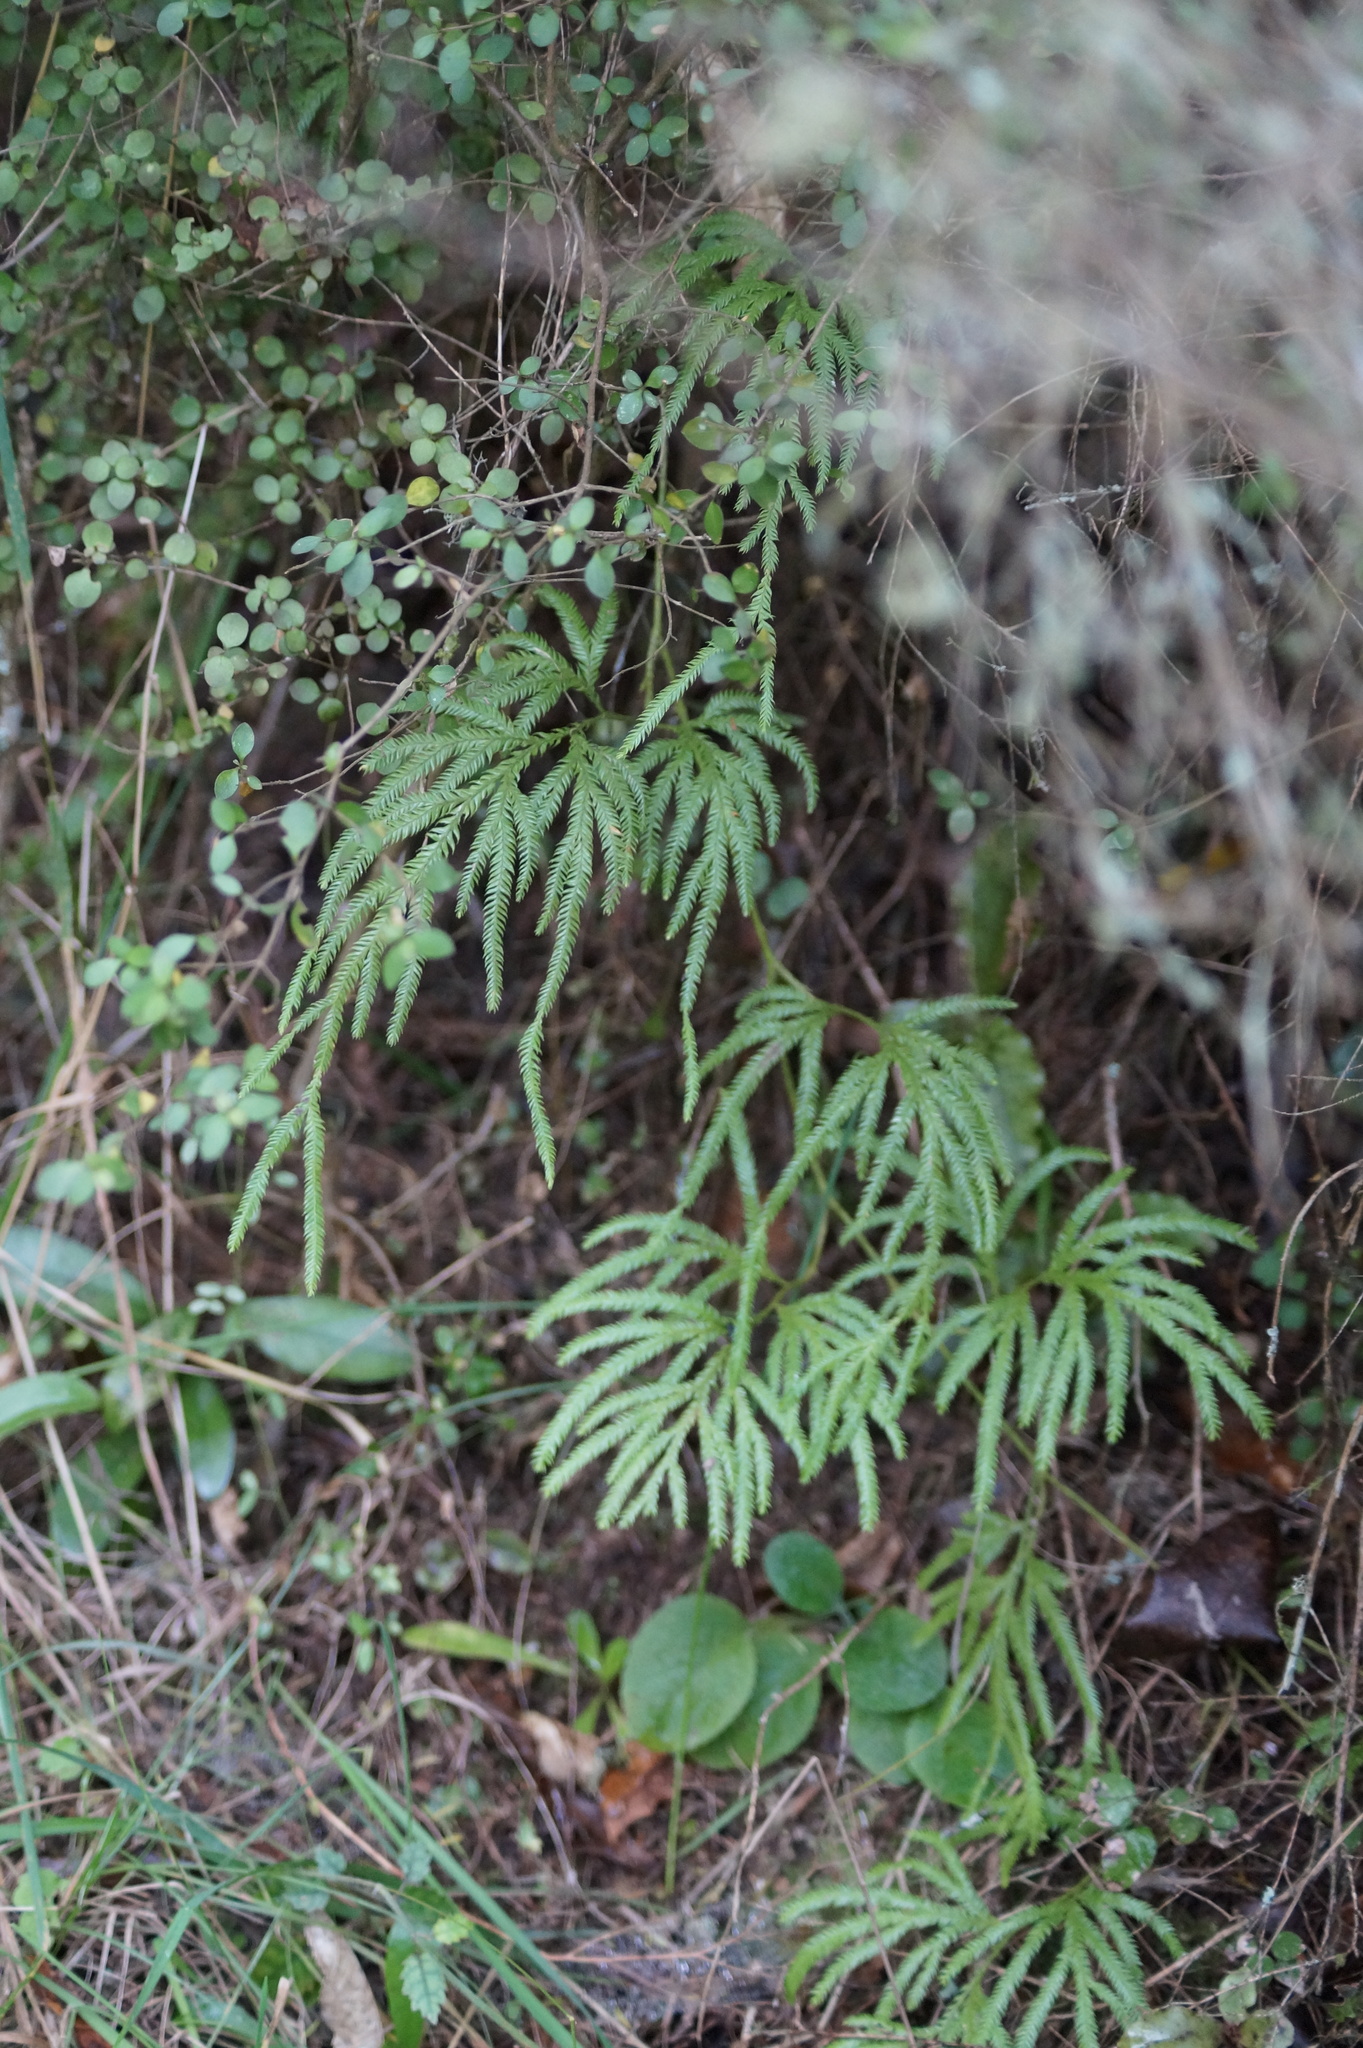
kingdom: Plantae
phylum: Tracheophyta
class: Lycopodiopsida
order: Lycopodiales
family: Lycopodiaceae
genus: Lycopodium
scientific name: Lycopodium volubile
